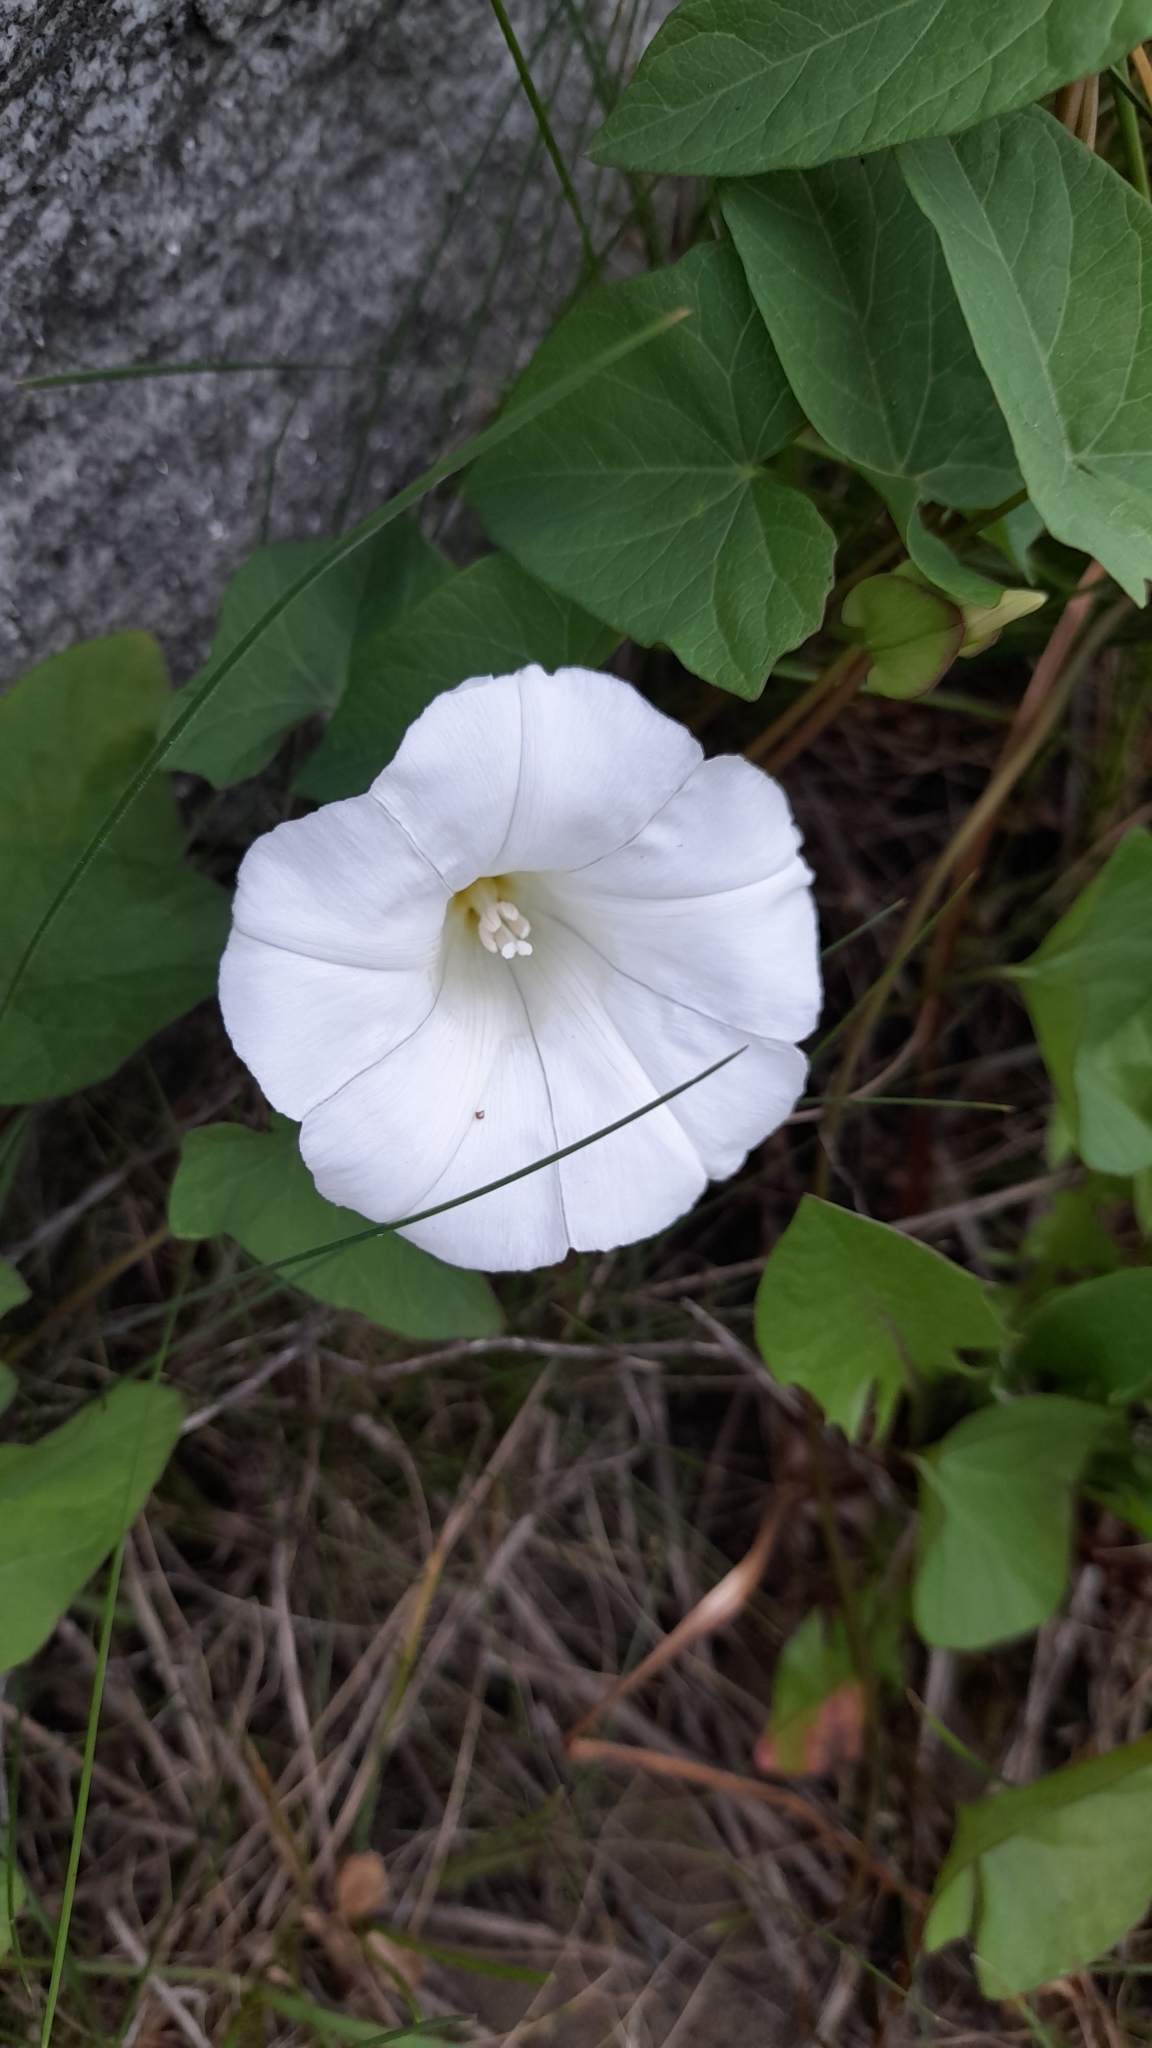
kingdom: Plantae
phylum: Tracheophyta
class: Magnoliopsida
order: Solanales
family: Convolvulaceae
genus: Calystegia
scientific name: Calystegia sepium
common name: Hedge bindweed
